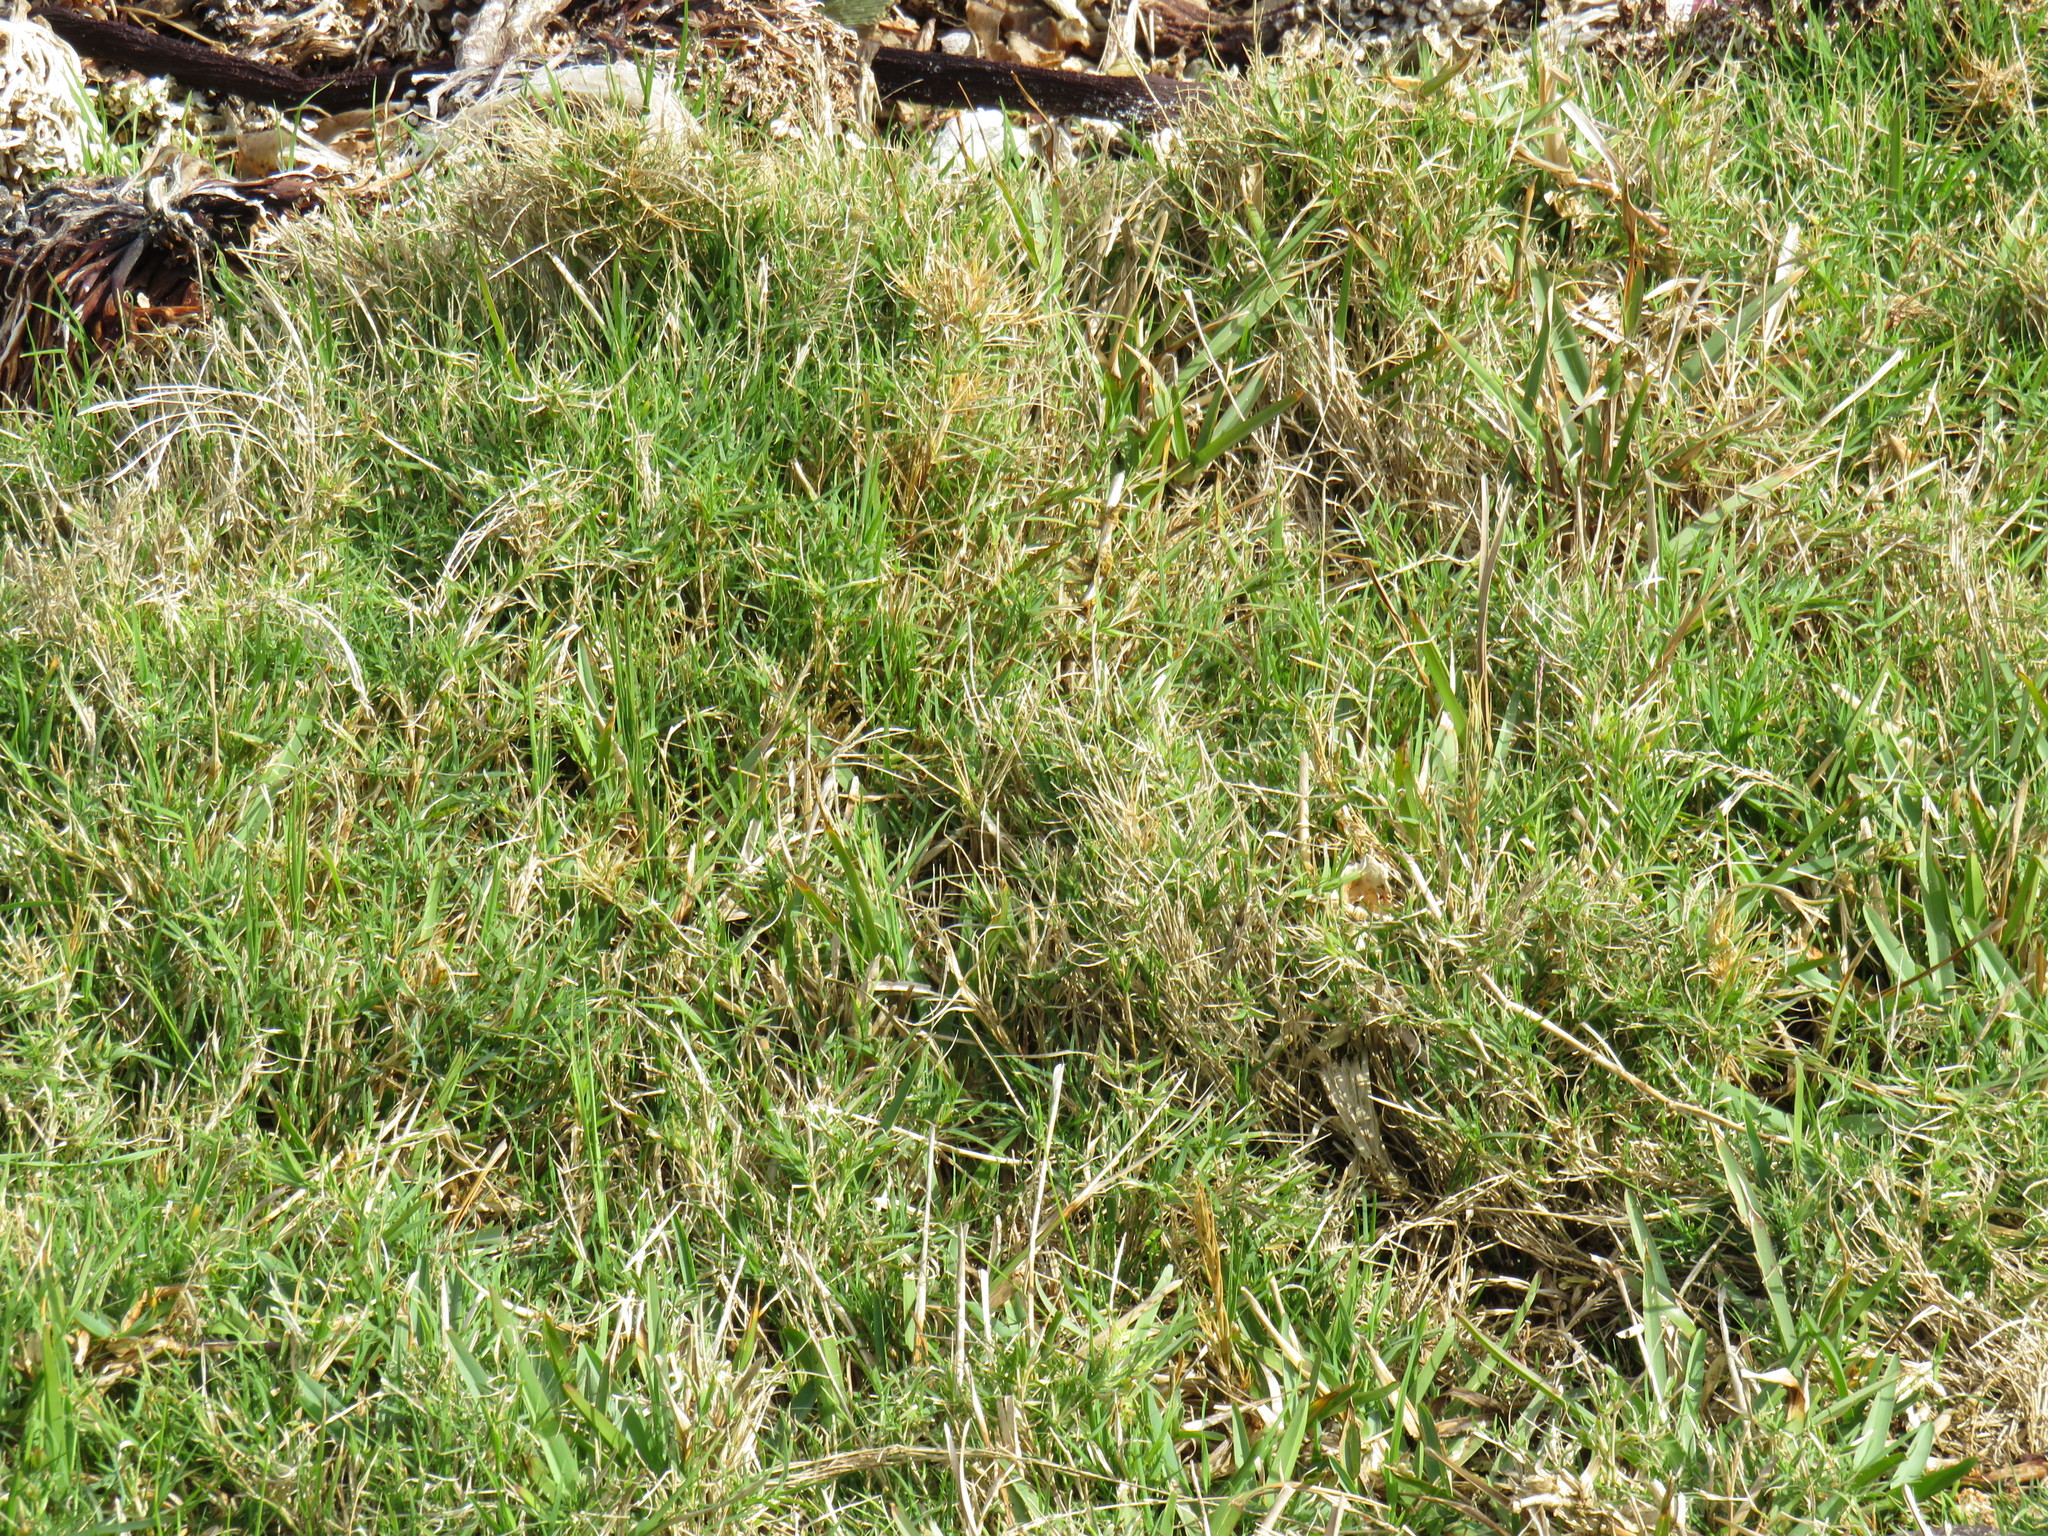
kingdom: Plantae
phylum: Tracheophyta
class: Liliopsida
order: Poales
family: Poaceae
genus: Cynodon
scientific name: Cynodon dactylon
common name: Bermuda grass
